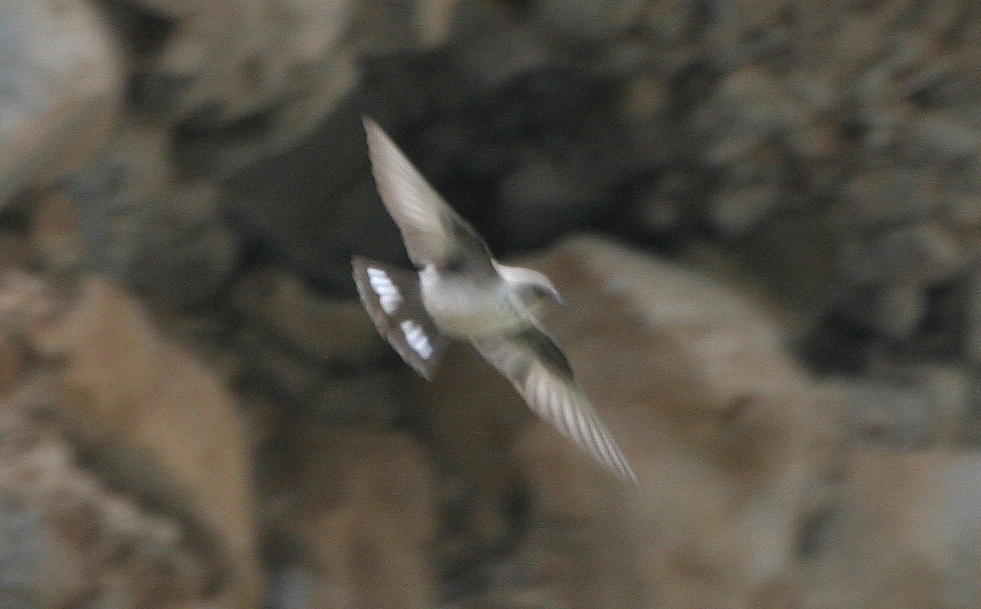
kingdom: Animalia
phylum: Chordata
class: Aves
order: Passeriformes
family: Hirundinidae
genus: Ptyonoprogne
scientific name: Ptyonoprogne rupestris
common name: Eurasian crag martin
